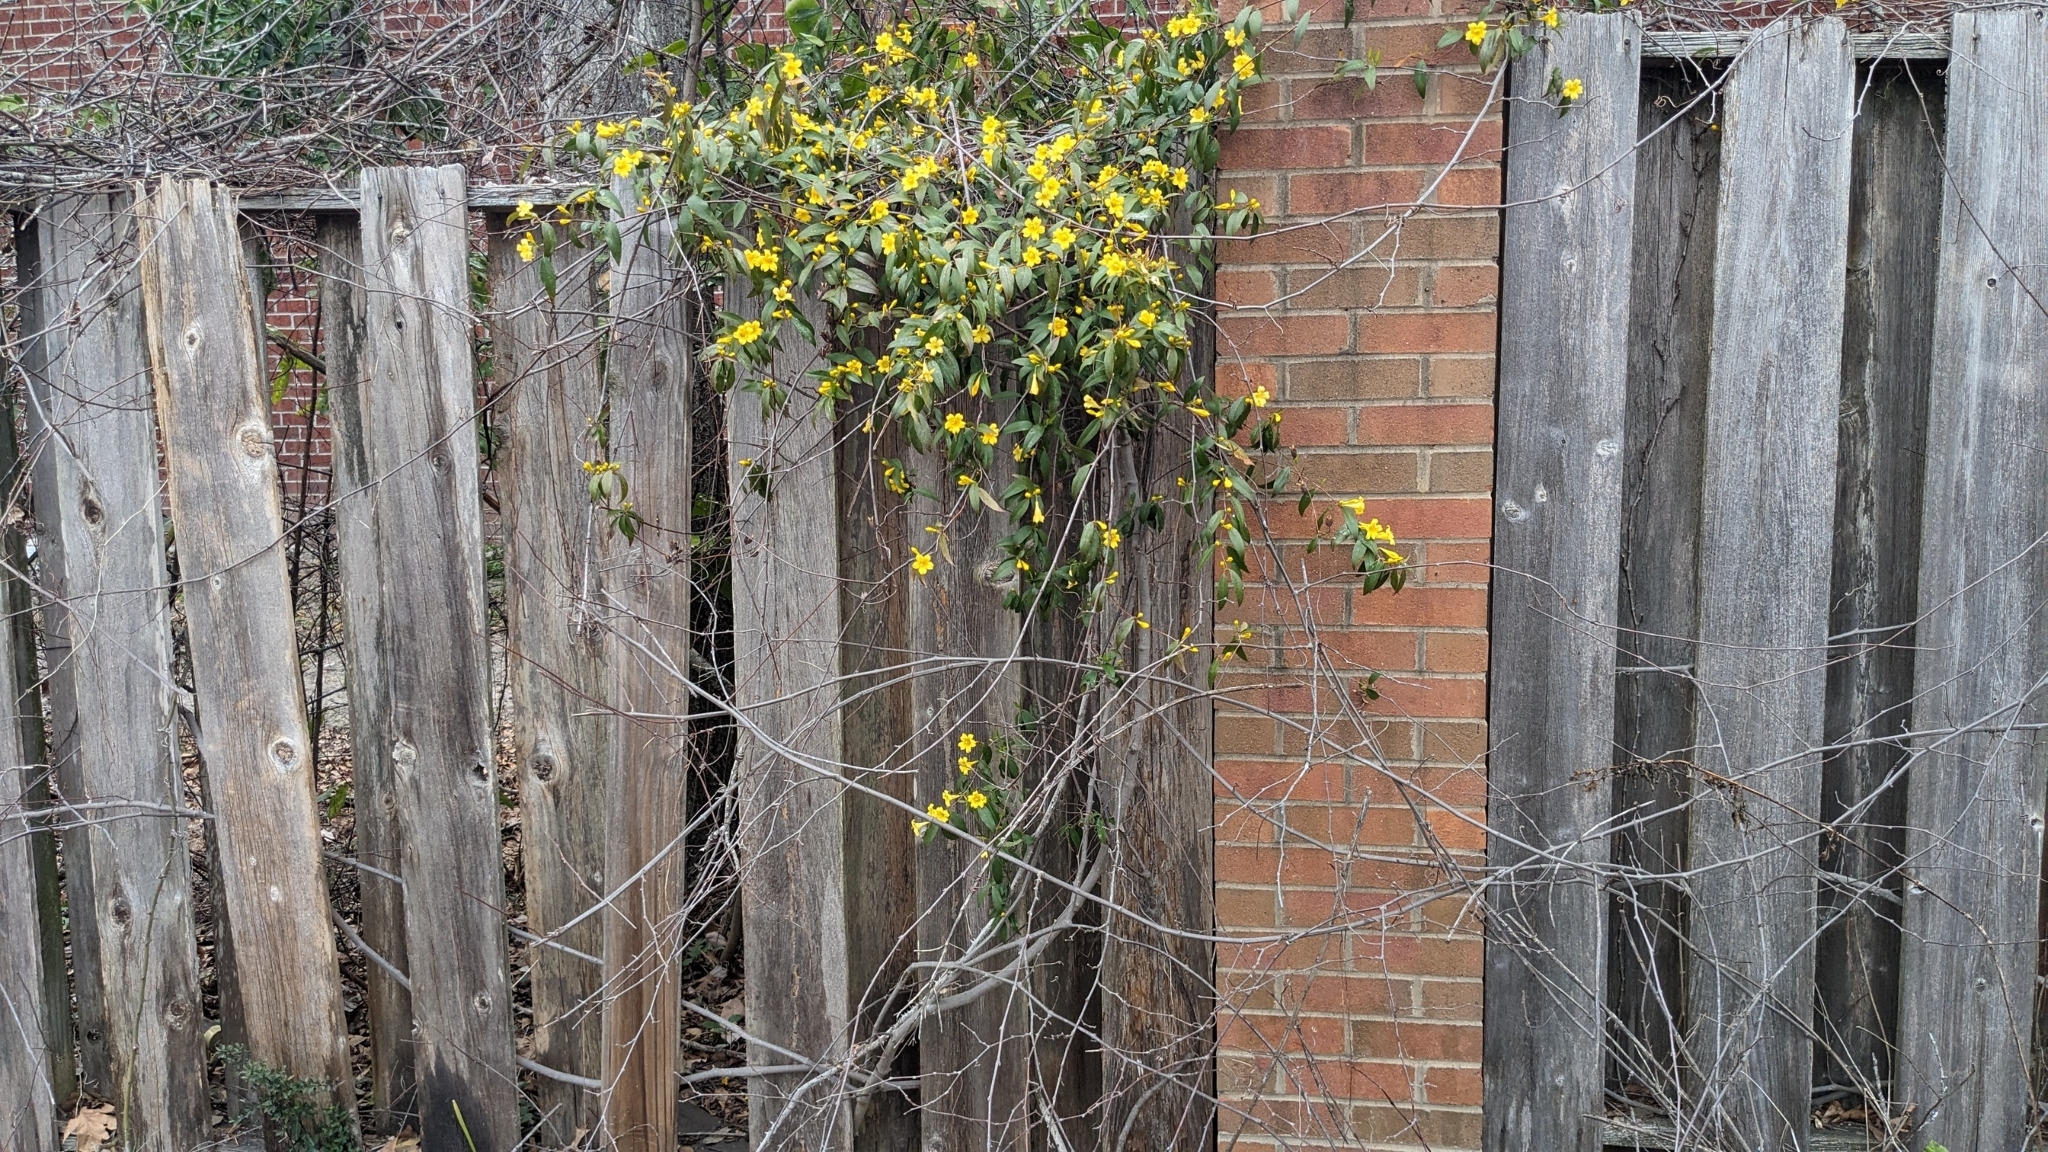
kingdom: Plantae
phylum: Tracheophyta
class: Magnoliopsida
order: Gentianales
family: Gelsemiaceae
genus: Gelsemium
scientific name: Gelsemium sempervirens
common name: Carolina-jasmine
